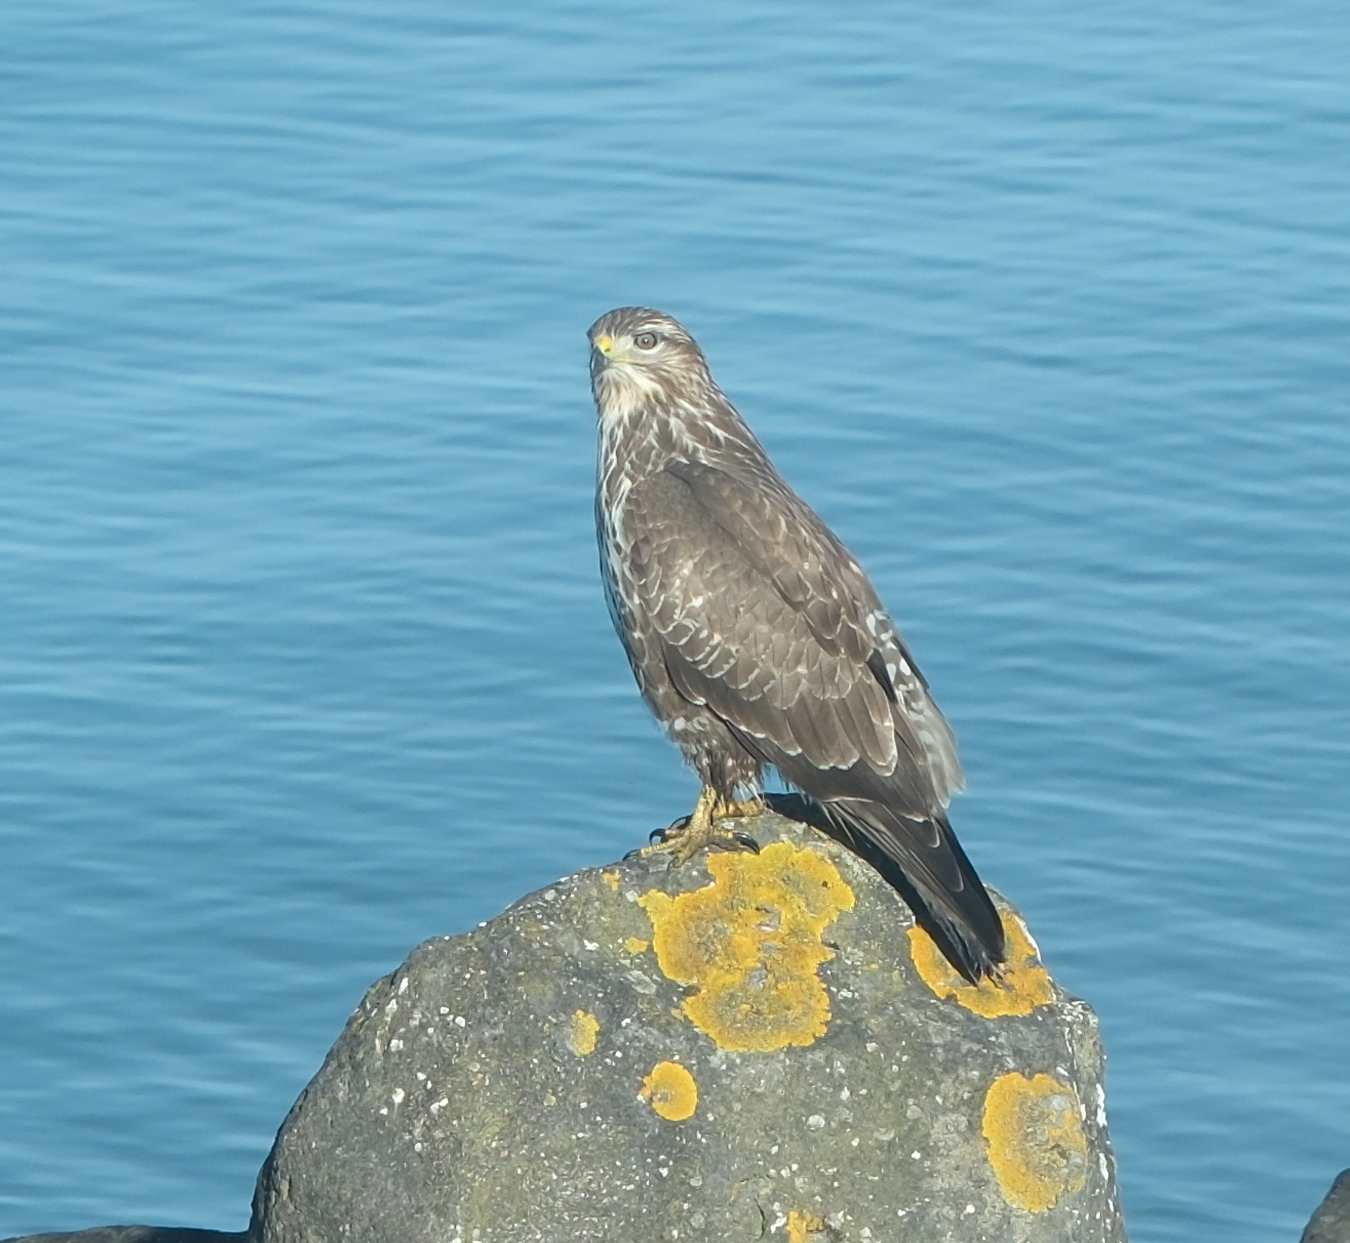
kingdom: Animalia
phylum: Chordata
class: Aves
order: Accipitriformes
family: Accipitridae
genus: Buteo
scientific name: Buteo buteo
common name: Common buzzard
